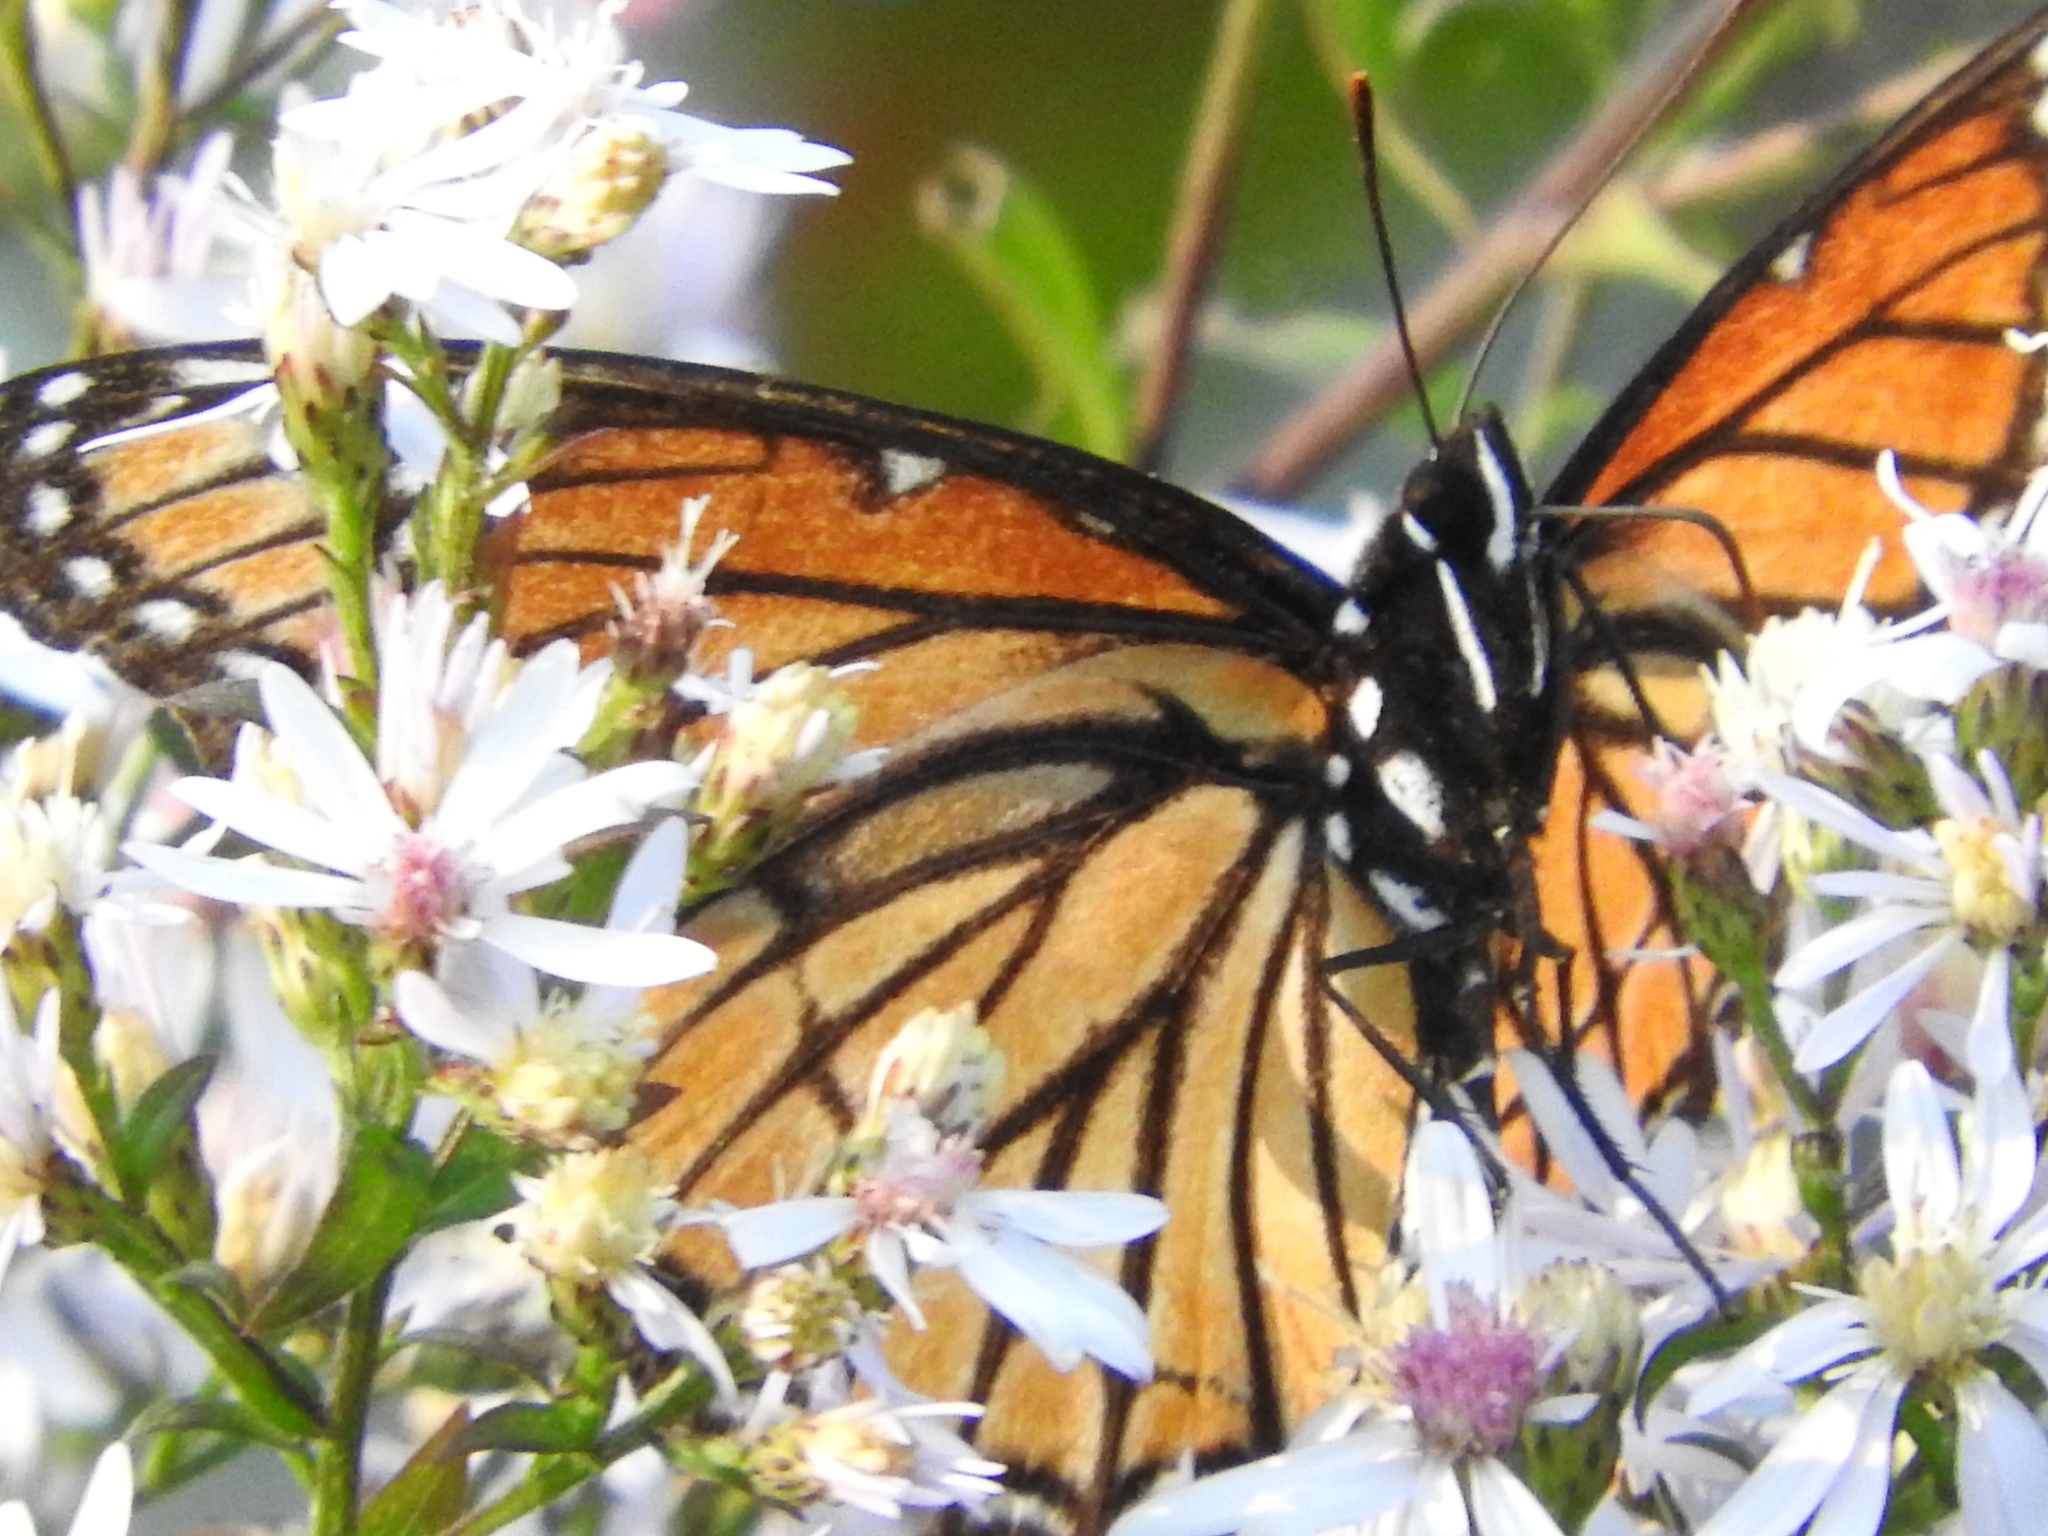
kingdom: Animalia
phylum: Arthropoda
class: Insecta
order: Lepidoptera
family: Nymphalidae
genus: Limenitis
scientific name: Limenitis archippus
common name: Viceroy
